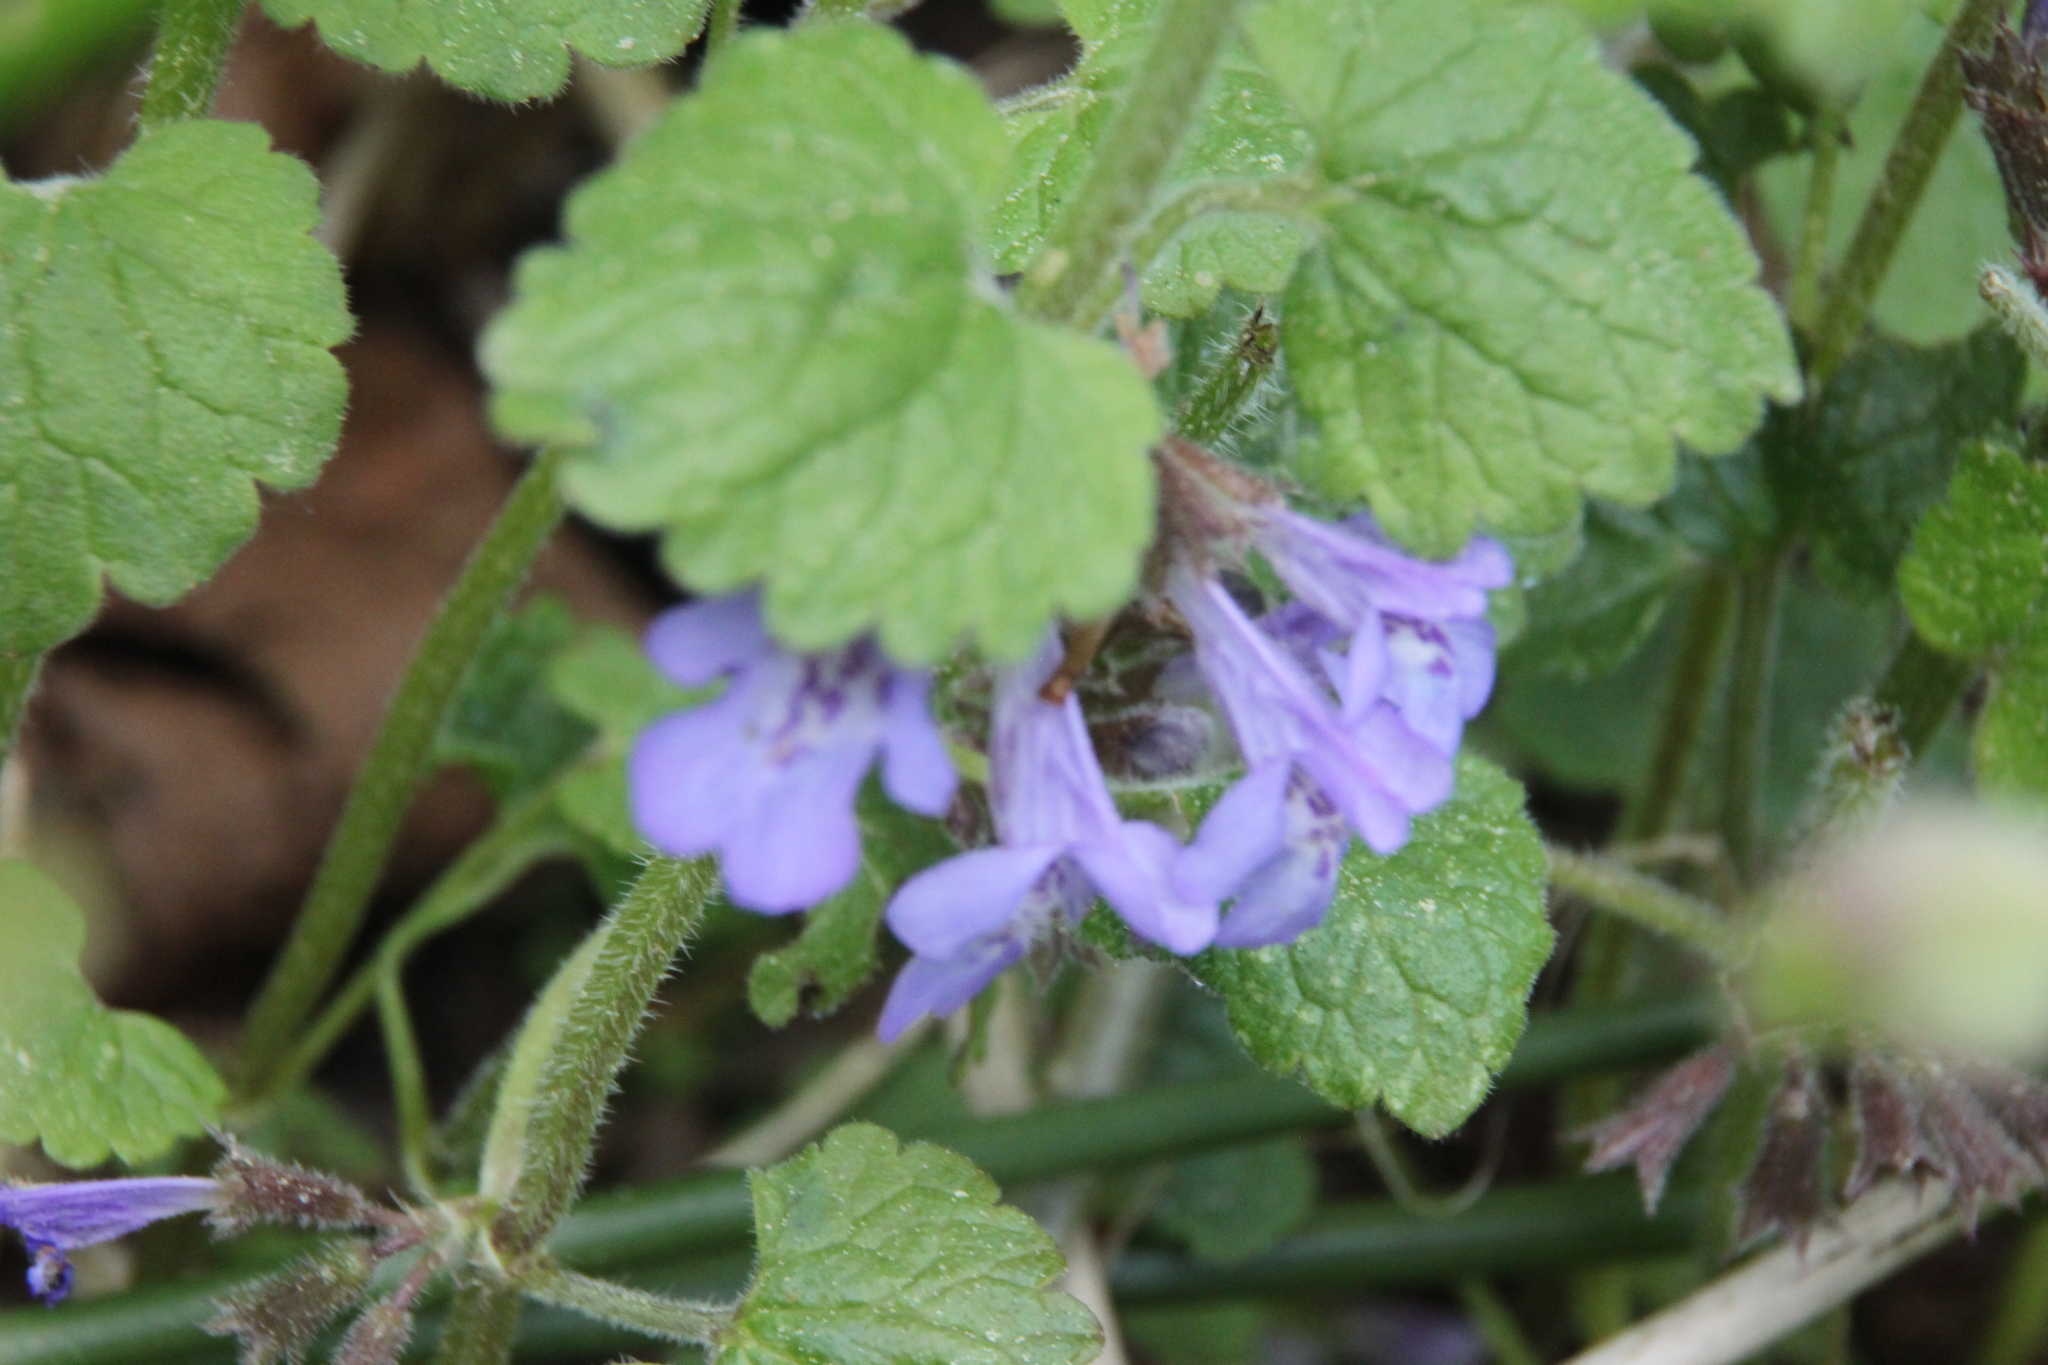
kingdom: Plantae
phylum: Tracheophyta
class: Magnoliopsida
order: Lamiales
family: Lamiaceae
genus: Glechoma
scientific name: Glechoma hederacea
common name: Ground ivy
